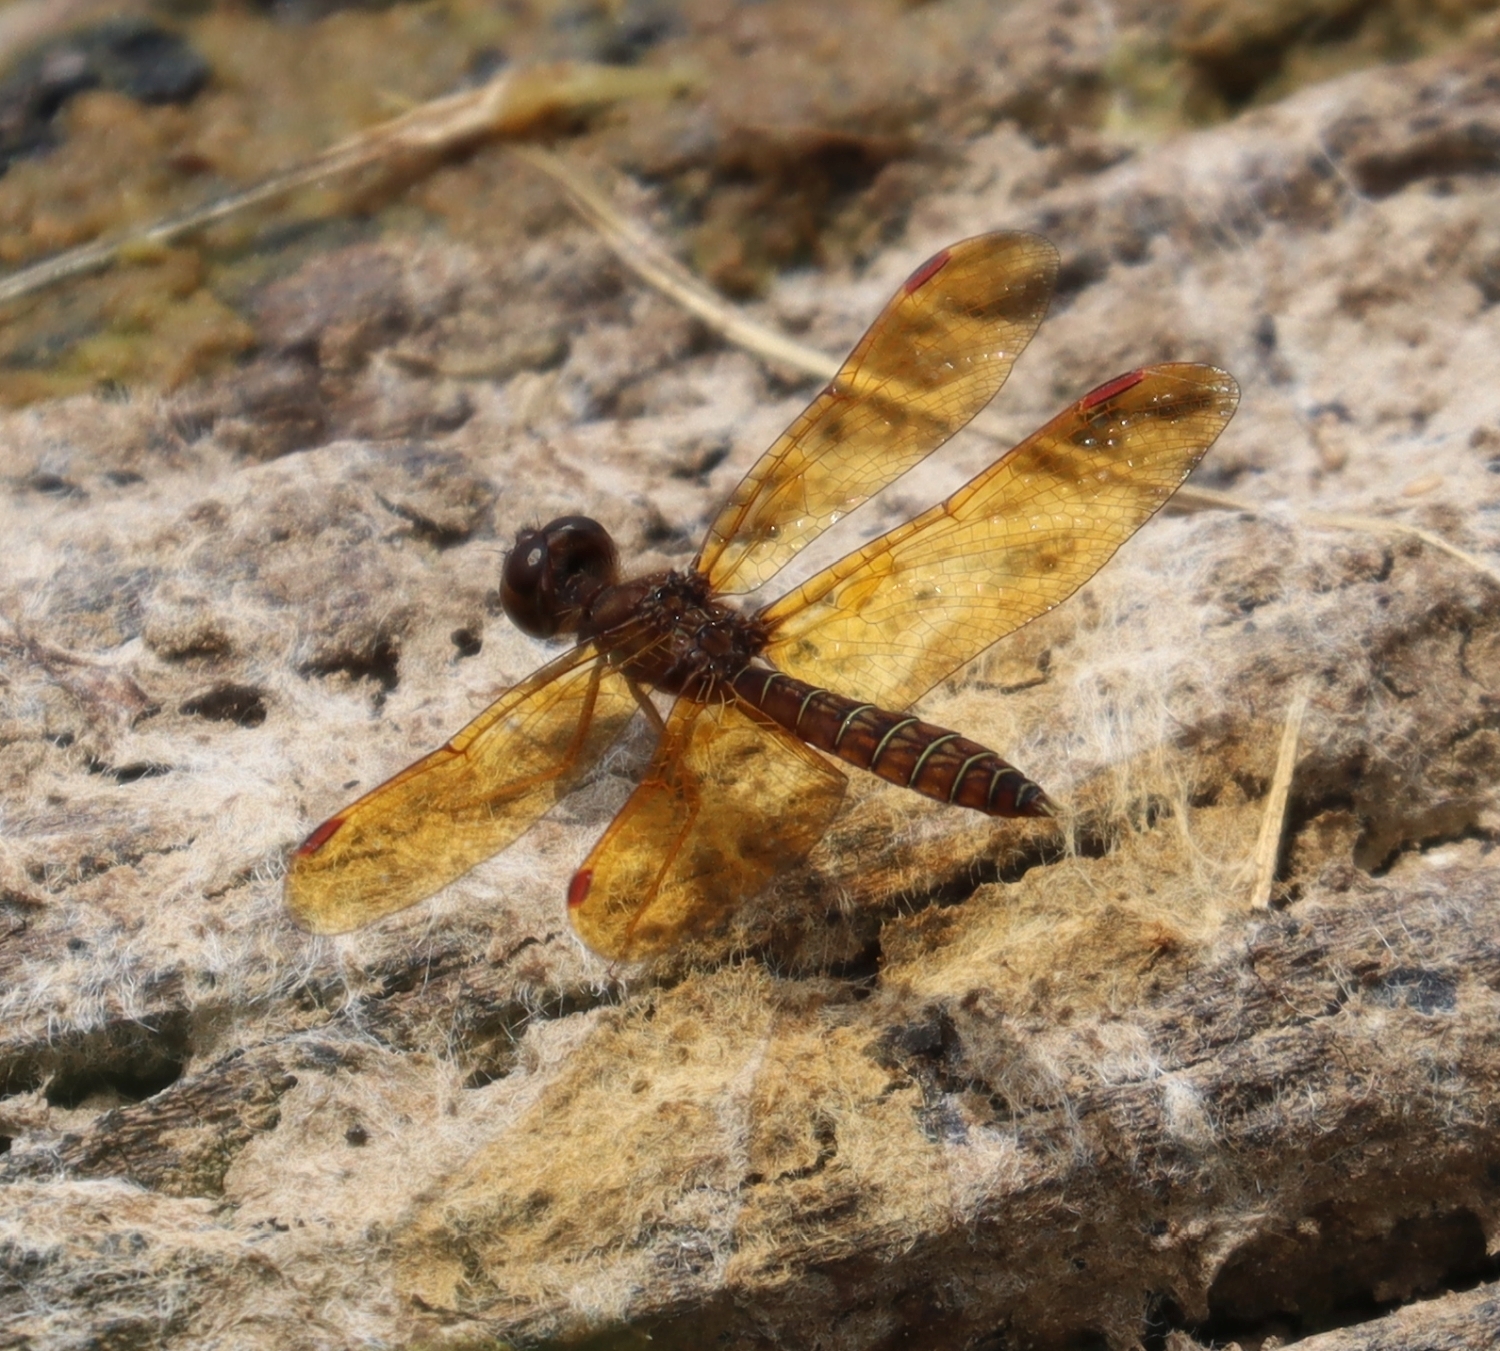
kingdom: Animalia
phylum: Arthropoda
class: Insecta
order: Odonata
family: Libellulidae
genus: Perithemis
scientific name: Perithemis tenera
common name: Eastern amberwing
